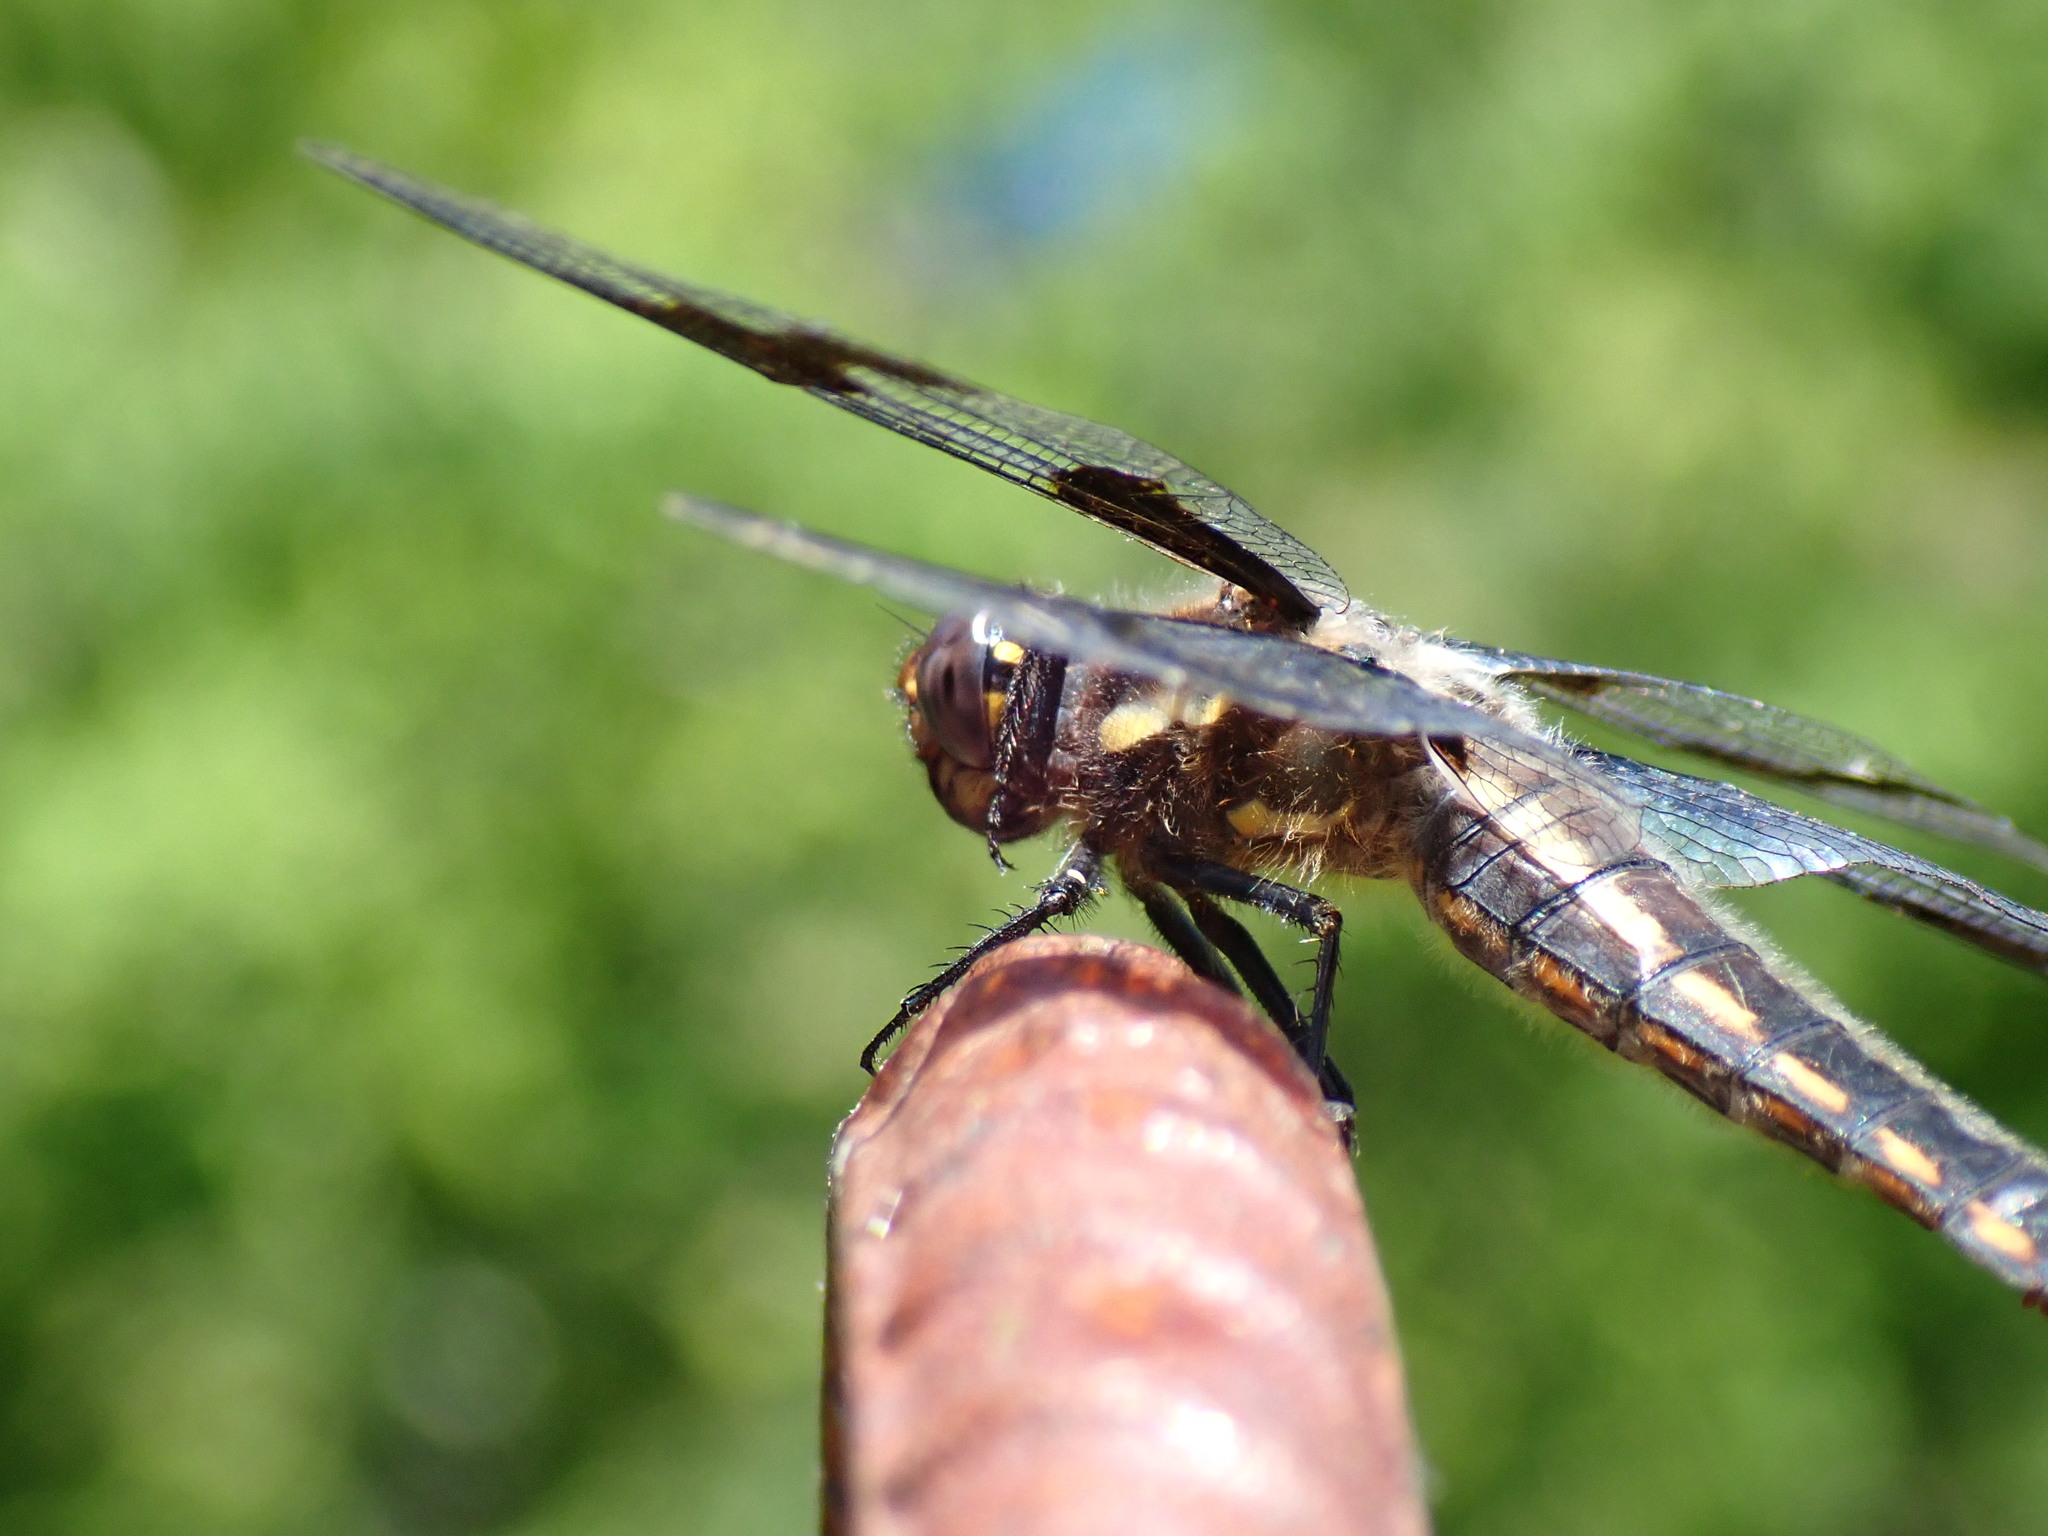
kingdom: Animalia
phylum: Arthropoda
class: Insecta
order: Odonata
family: Libellulidae
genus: Libellula
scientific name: Libellula forensis
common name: Eight-spotted skimmer
